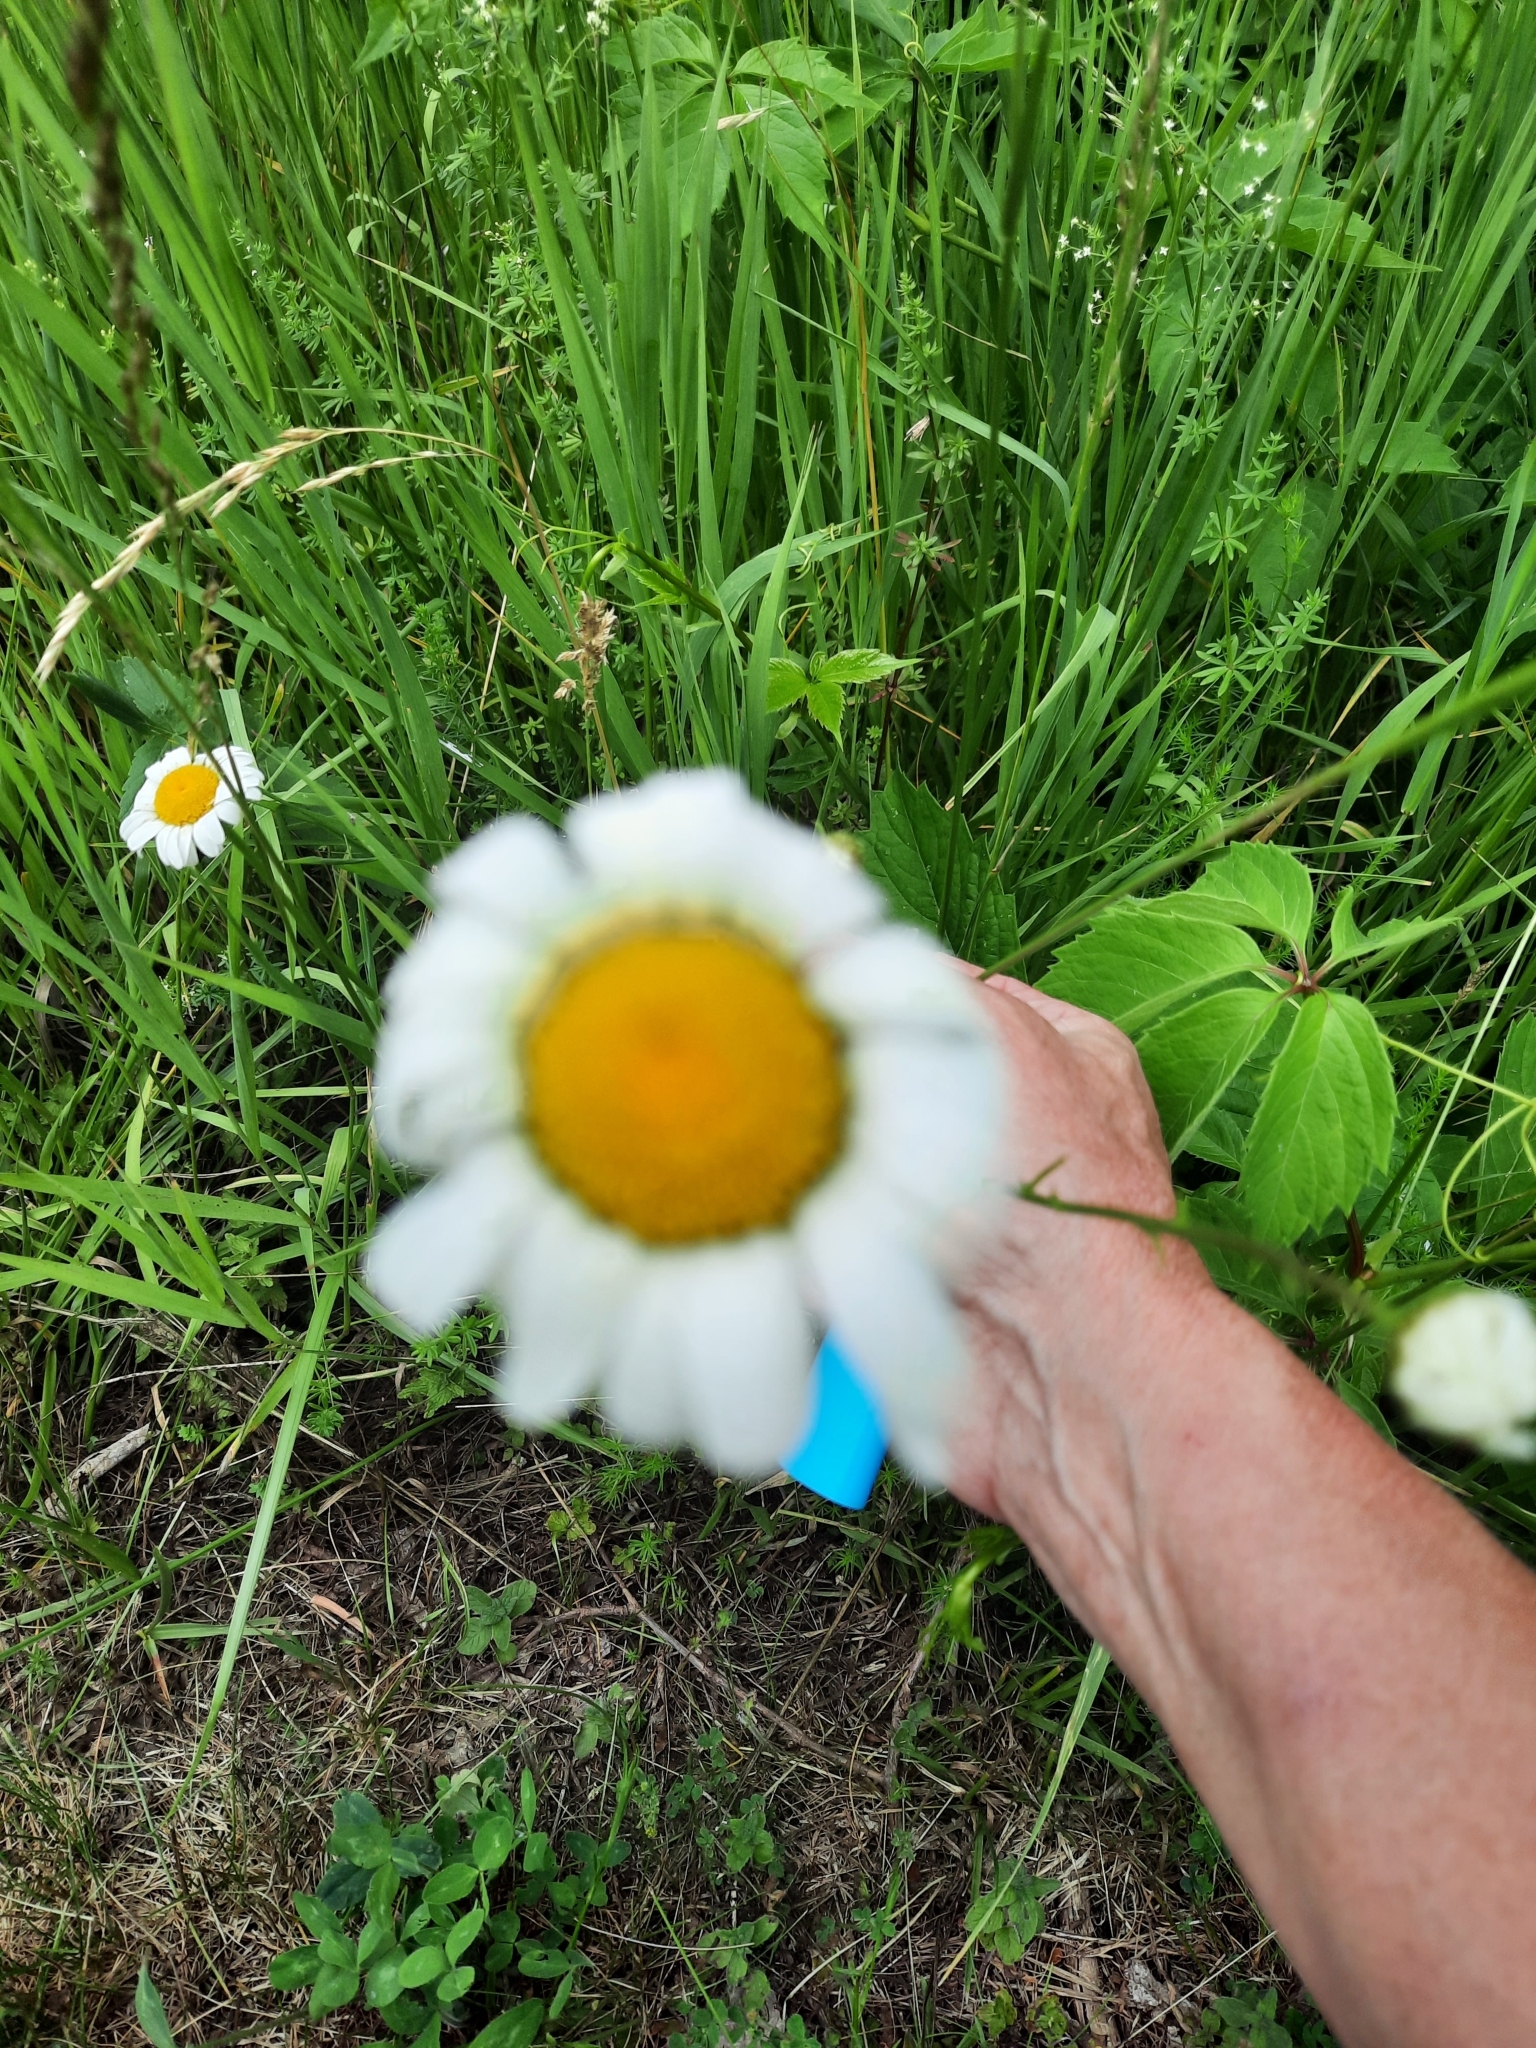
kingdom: Plantae
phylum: Tracheophyta
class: Magnoliopsida
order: Asterales
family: Asteraceae
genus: Leucanthemum
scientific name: Leucanthemum vulgare
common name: Oxeye daisy
